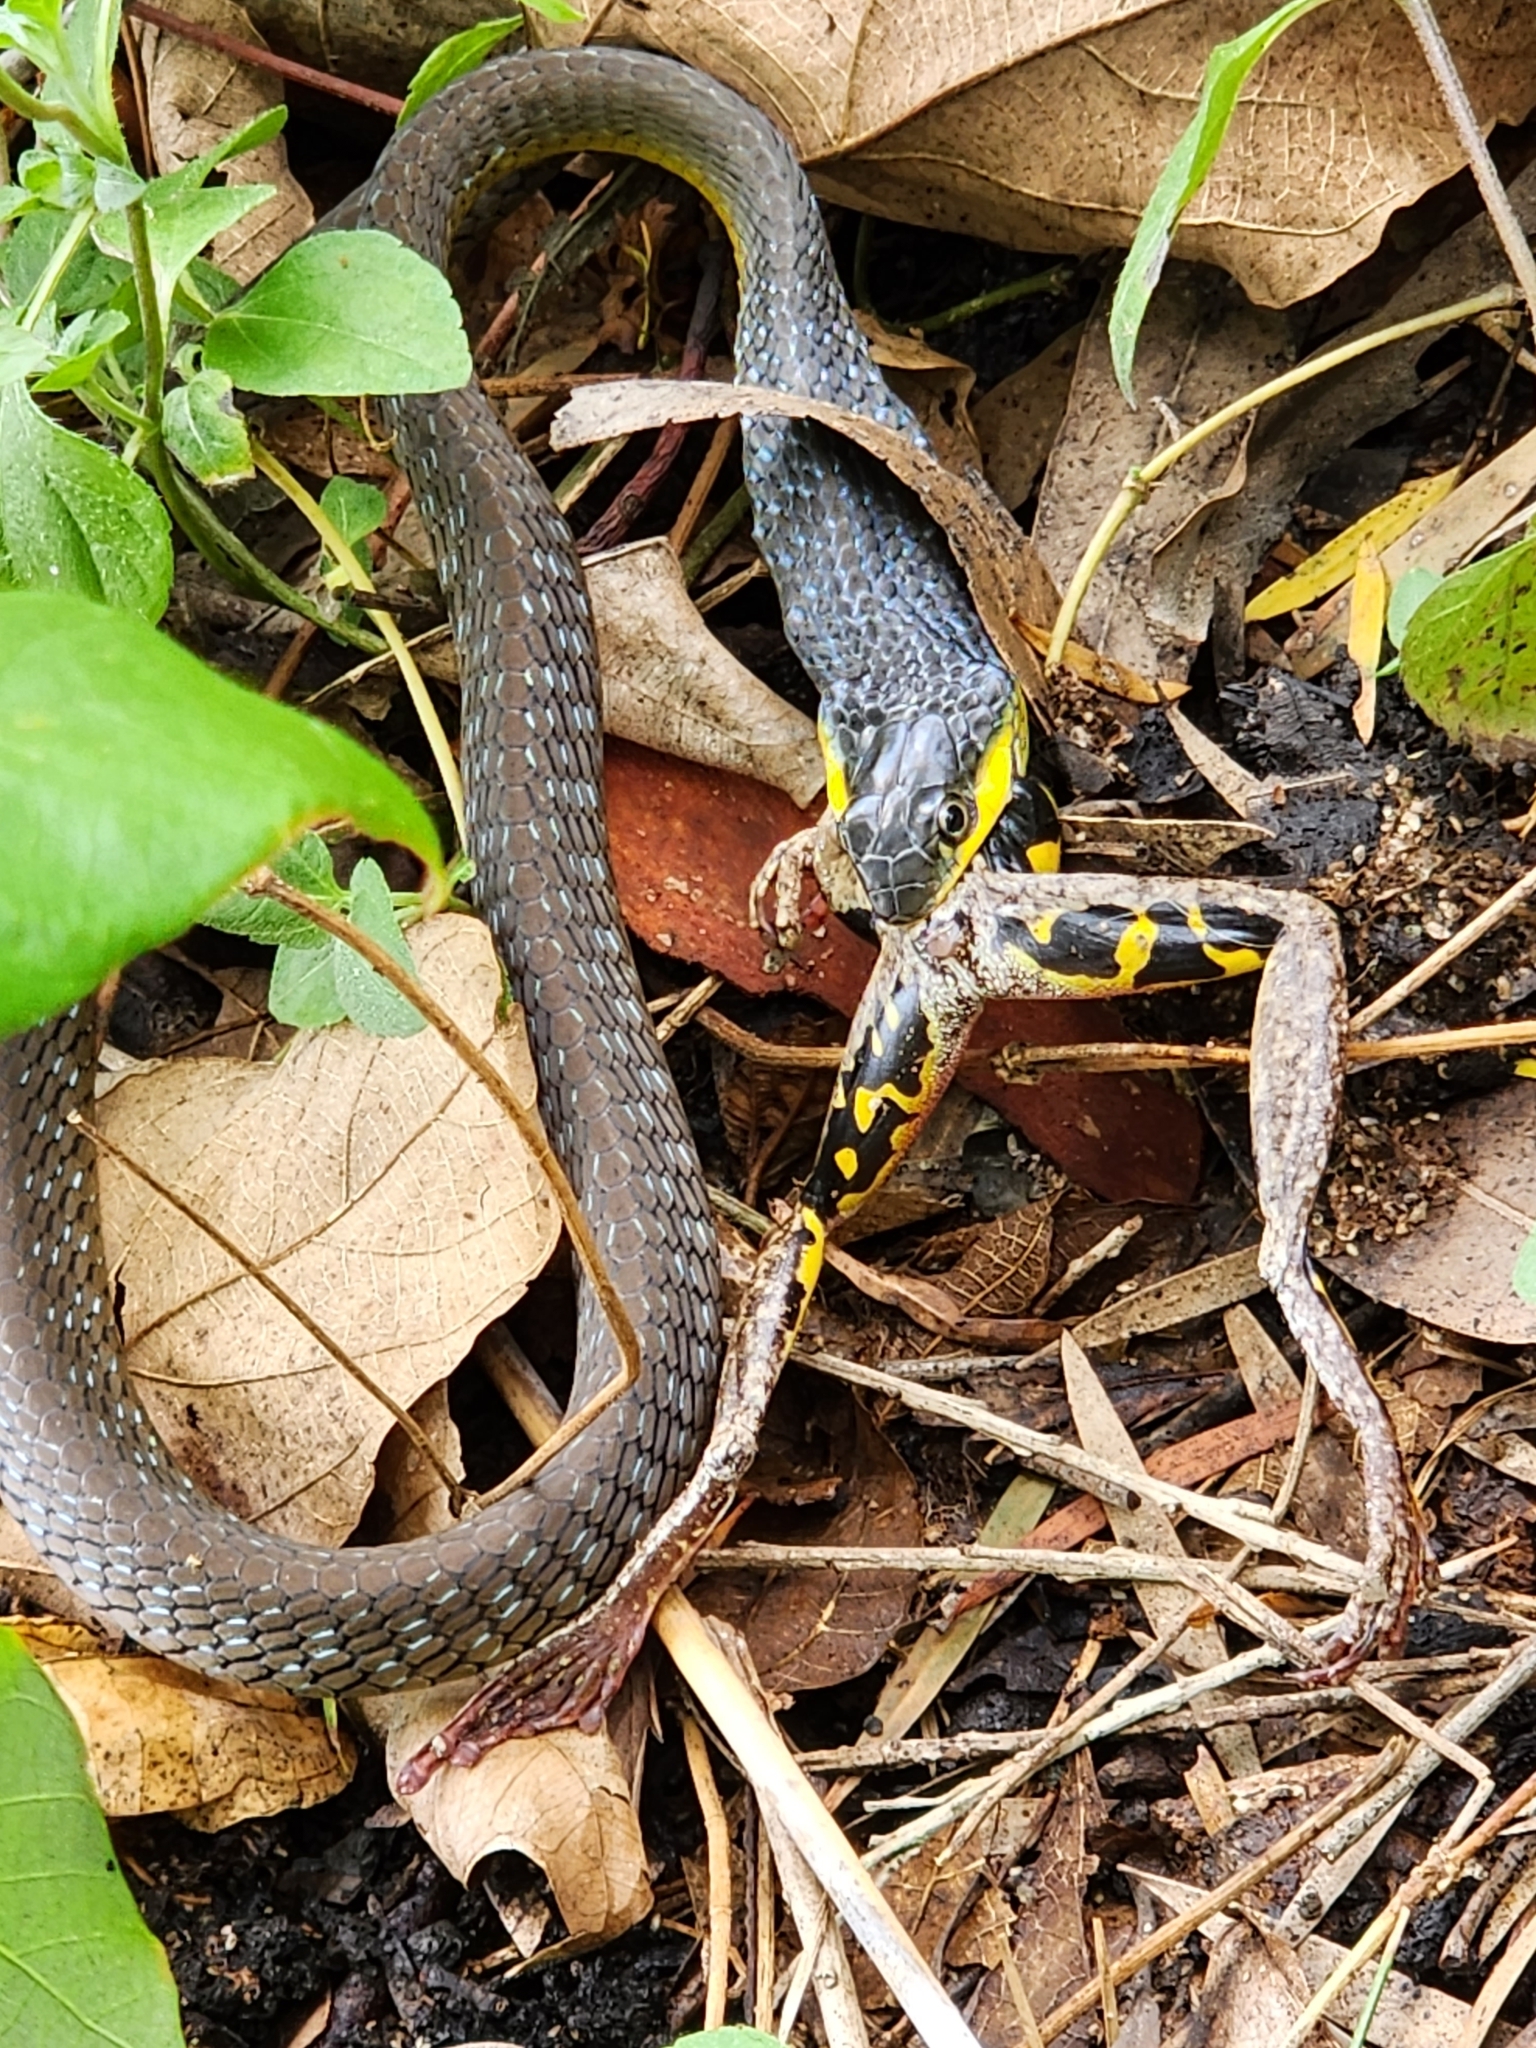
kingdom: Animalia
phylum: Chordata
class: Amphibia
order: Anura
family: Pelodryadidae
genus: Litoria
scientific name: Litoria rothii
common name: Roth’s tree frog
